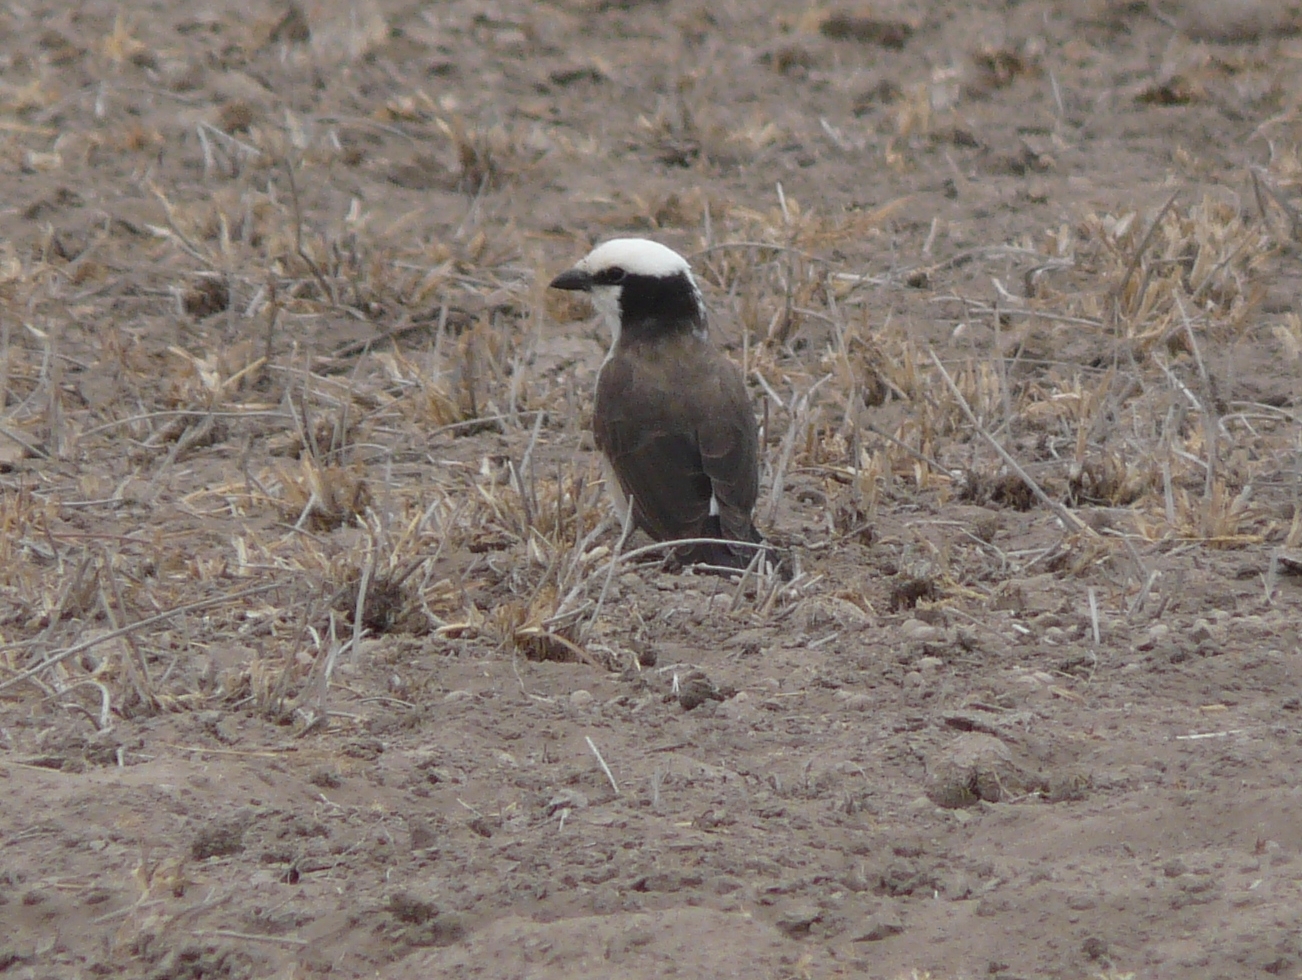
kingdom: Animalia
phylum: Chordata
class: Aves
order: Passeriformes
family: Laniidae
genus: Eurocephalus
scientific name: Eurocephalus ruppelli
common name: Northern white-crowned shrike
